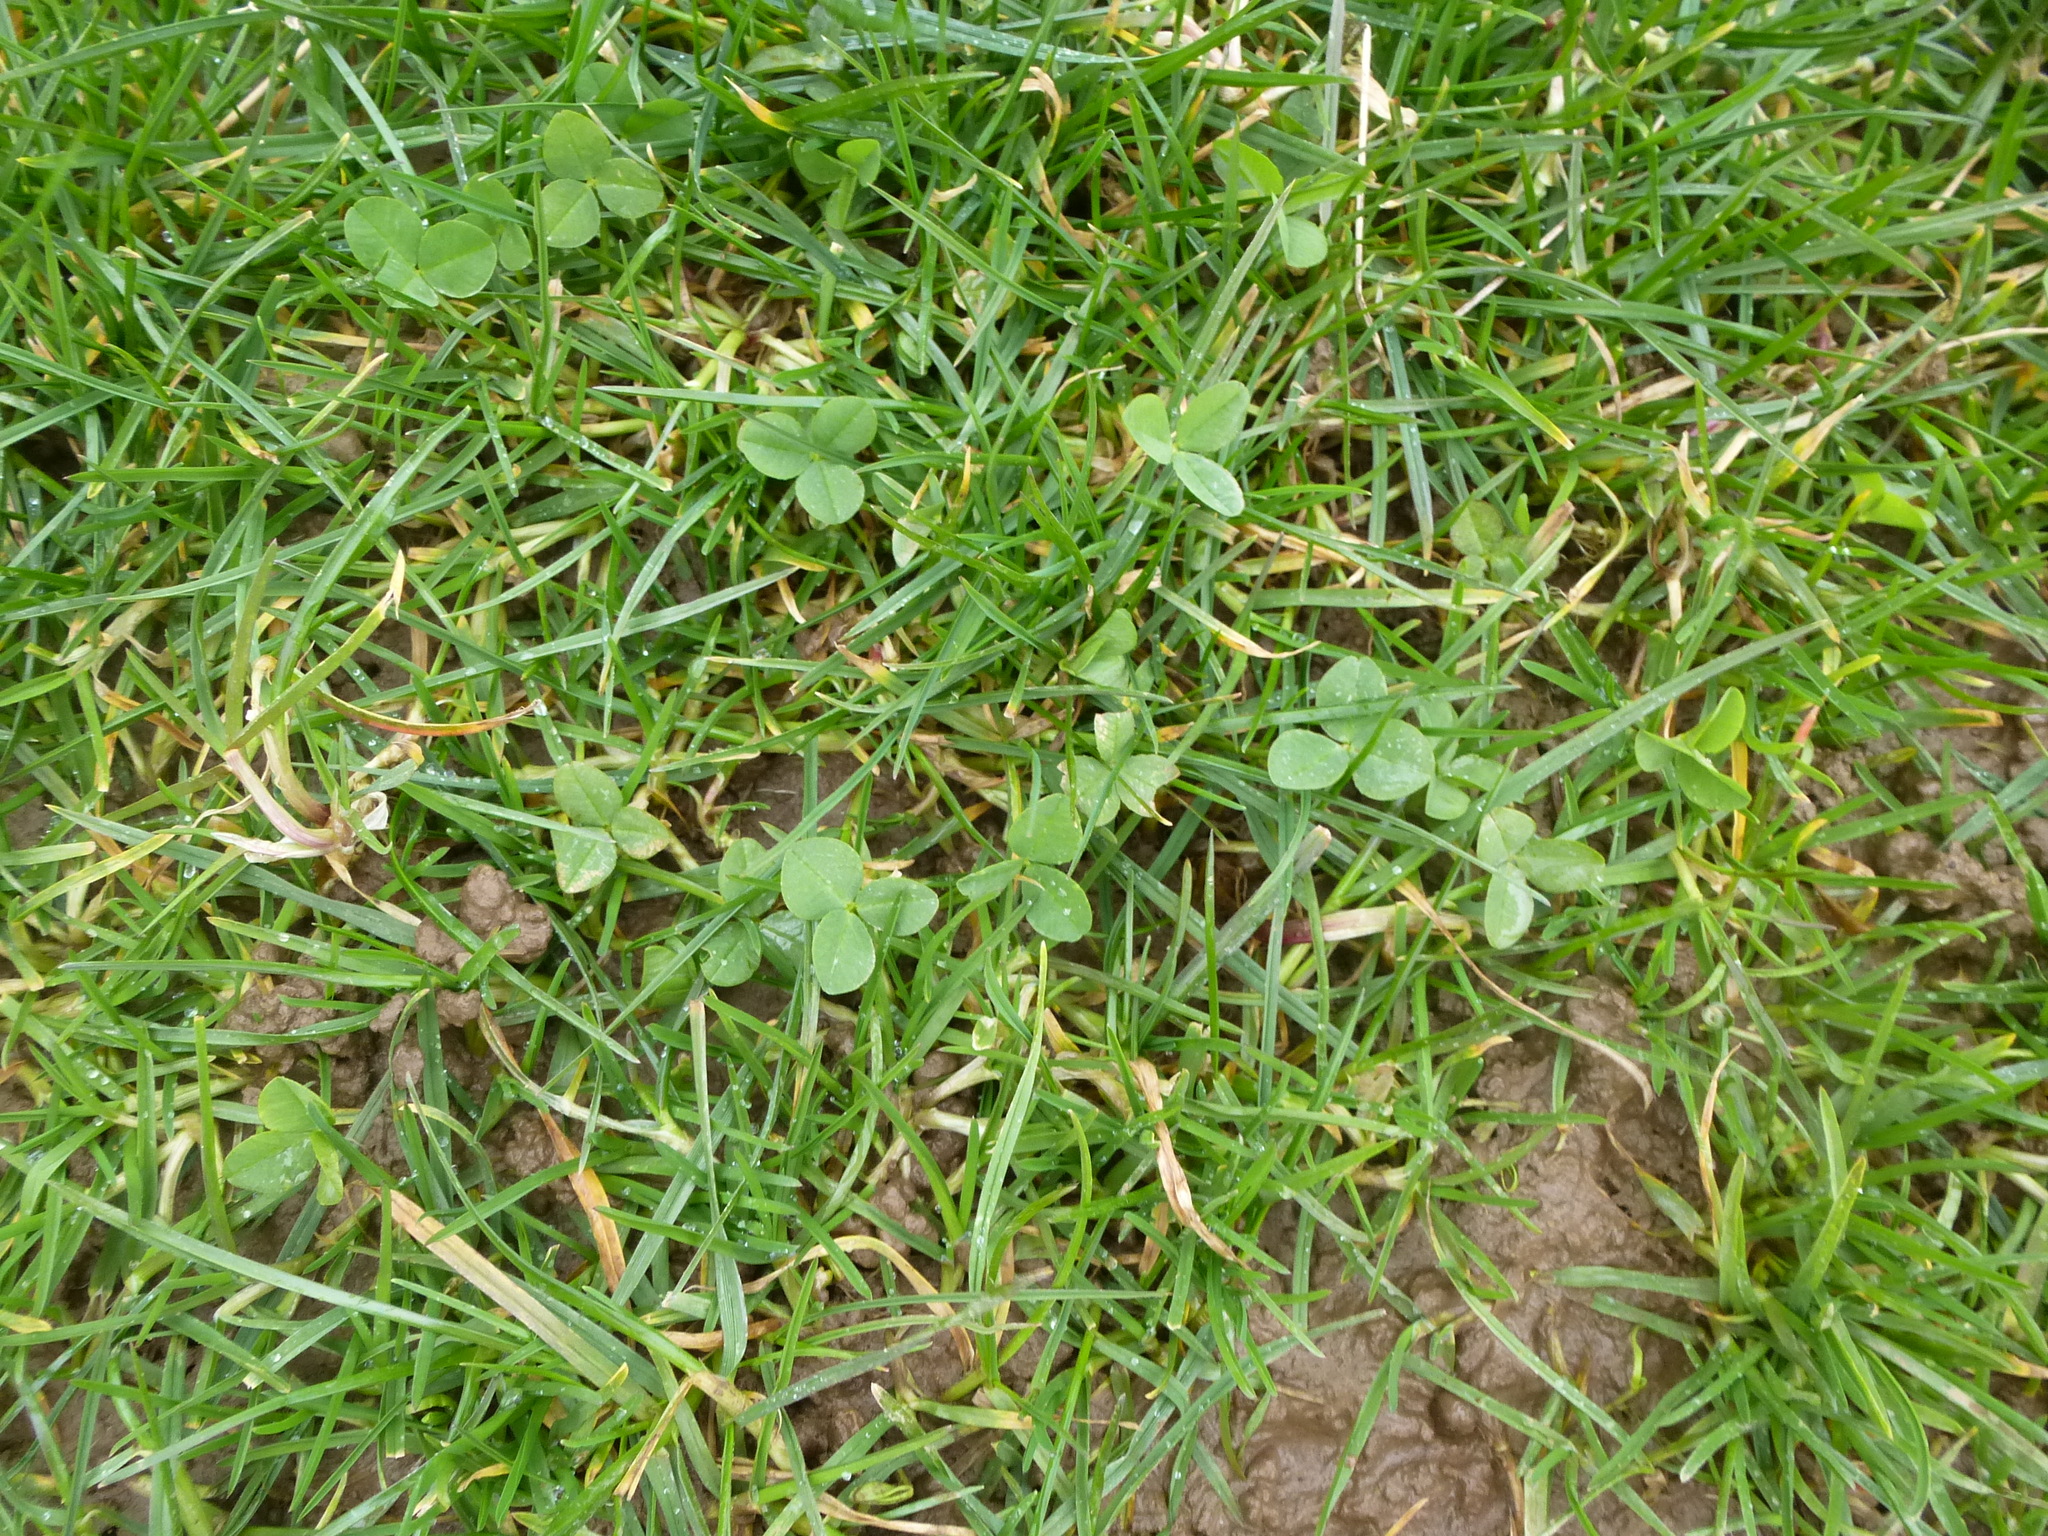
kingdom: Plantae
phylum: Tracheophyta
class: Magnoliopsida
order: Fabales
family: Fabaceae
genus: Trifolium
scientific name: Trifolium repens
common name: White clover
